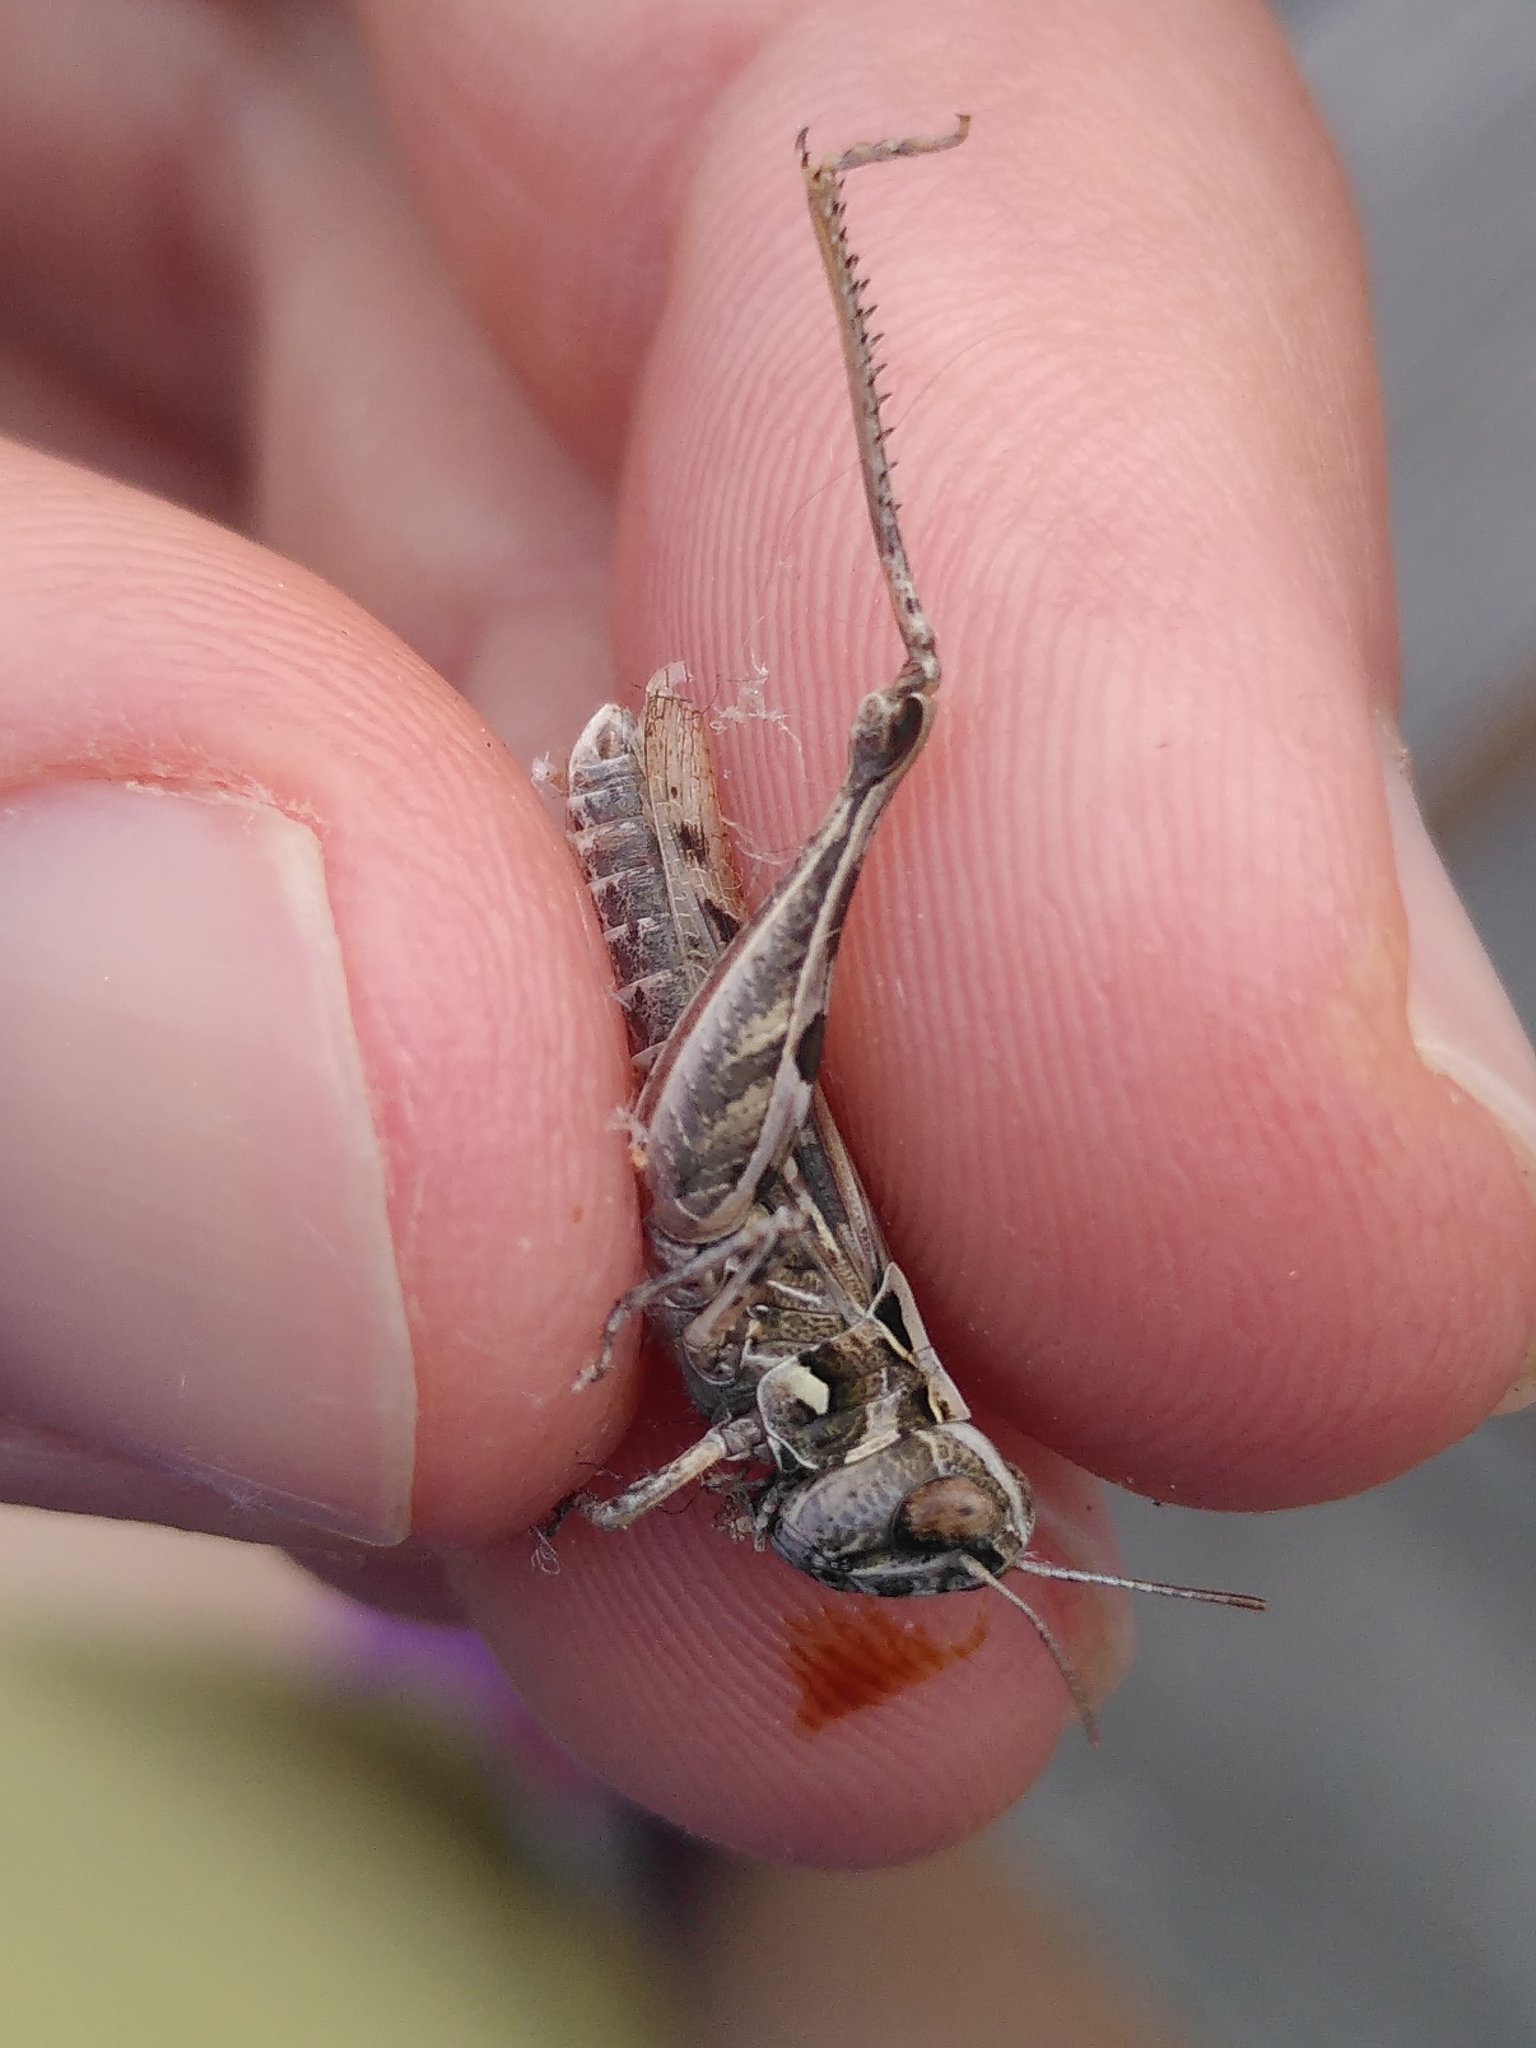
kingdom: Animalia
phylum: Arthropoda
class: Insecta
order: Orthoptera
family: Acrididae
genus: Dociostaurus
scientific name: Dociostaurus jagoi
